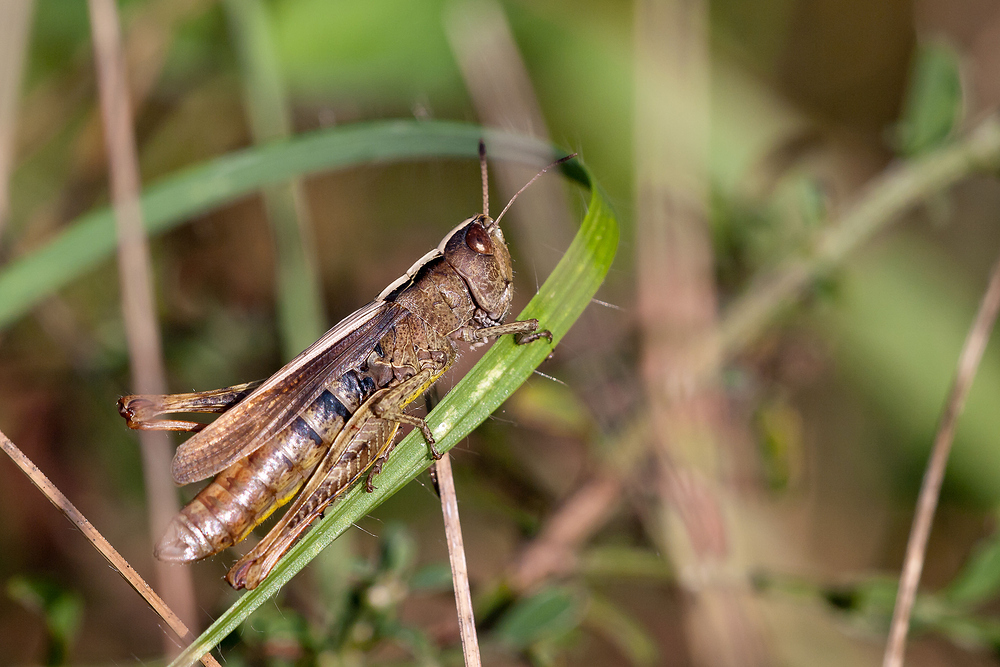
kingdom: Animalia
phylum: Arthropoda
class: Insecta
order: Orthoptera
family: Acrididae
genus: Gomphocerippus
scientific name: Gomphocerippus rufus
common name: Rufous grasshopper
